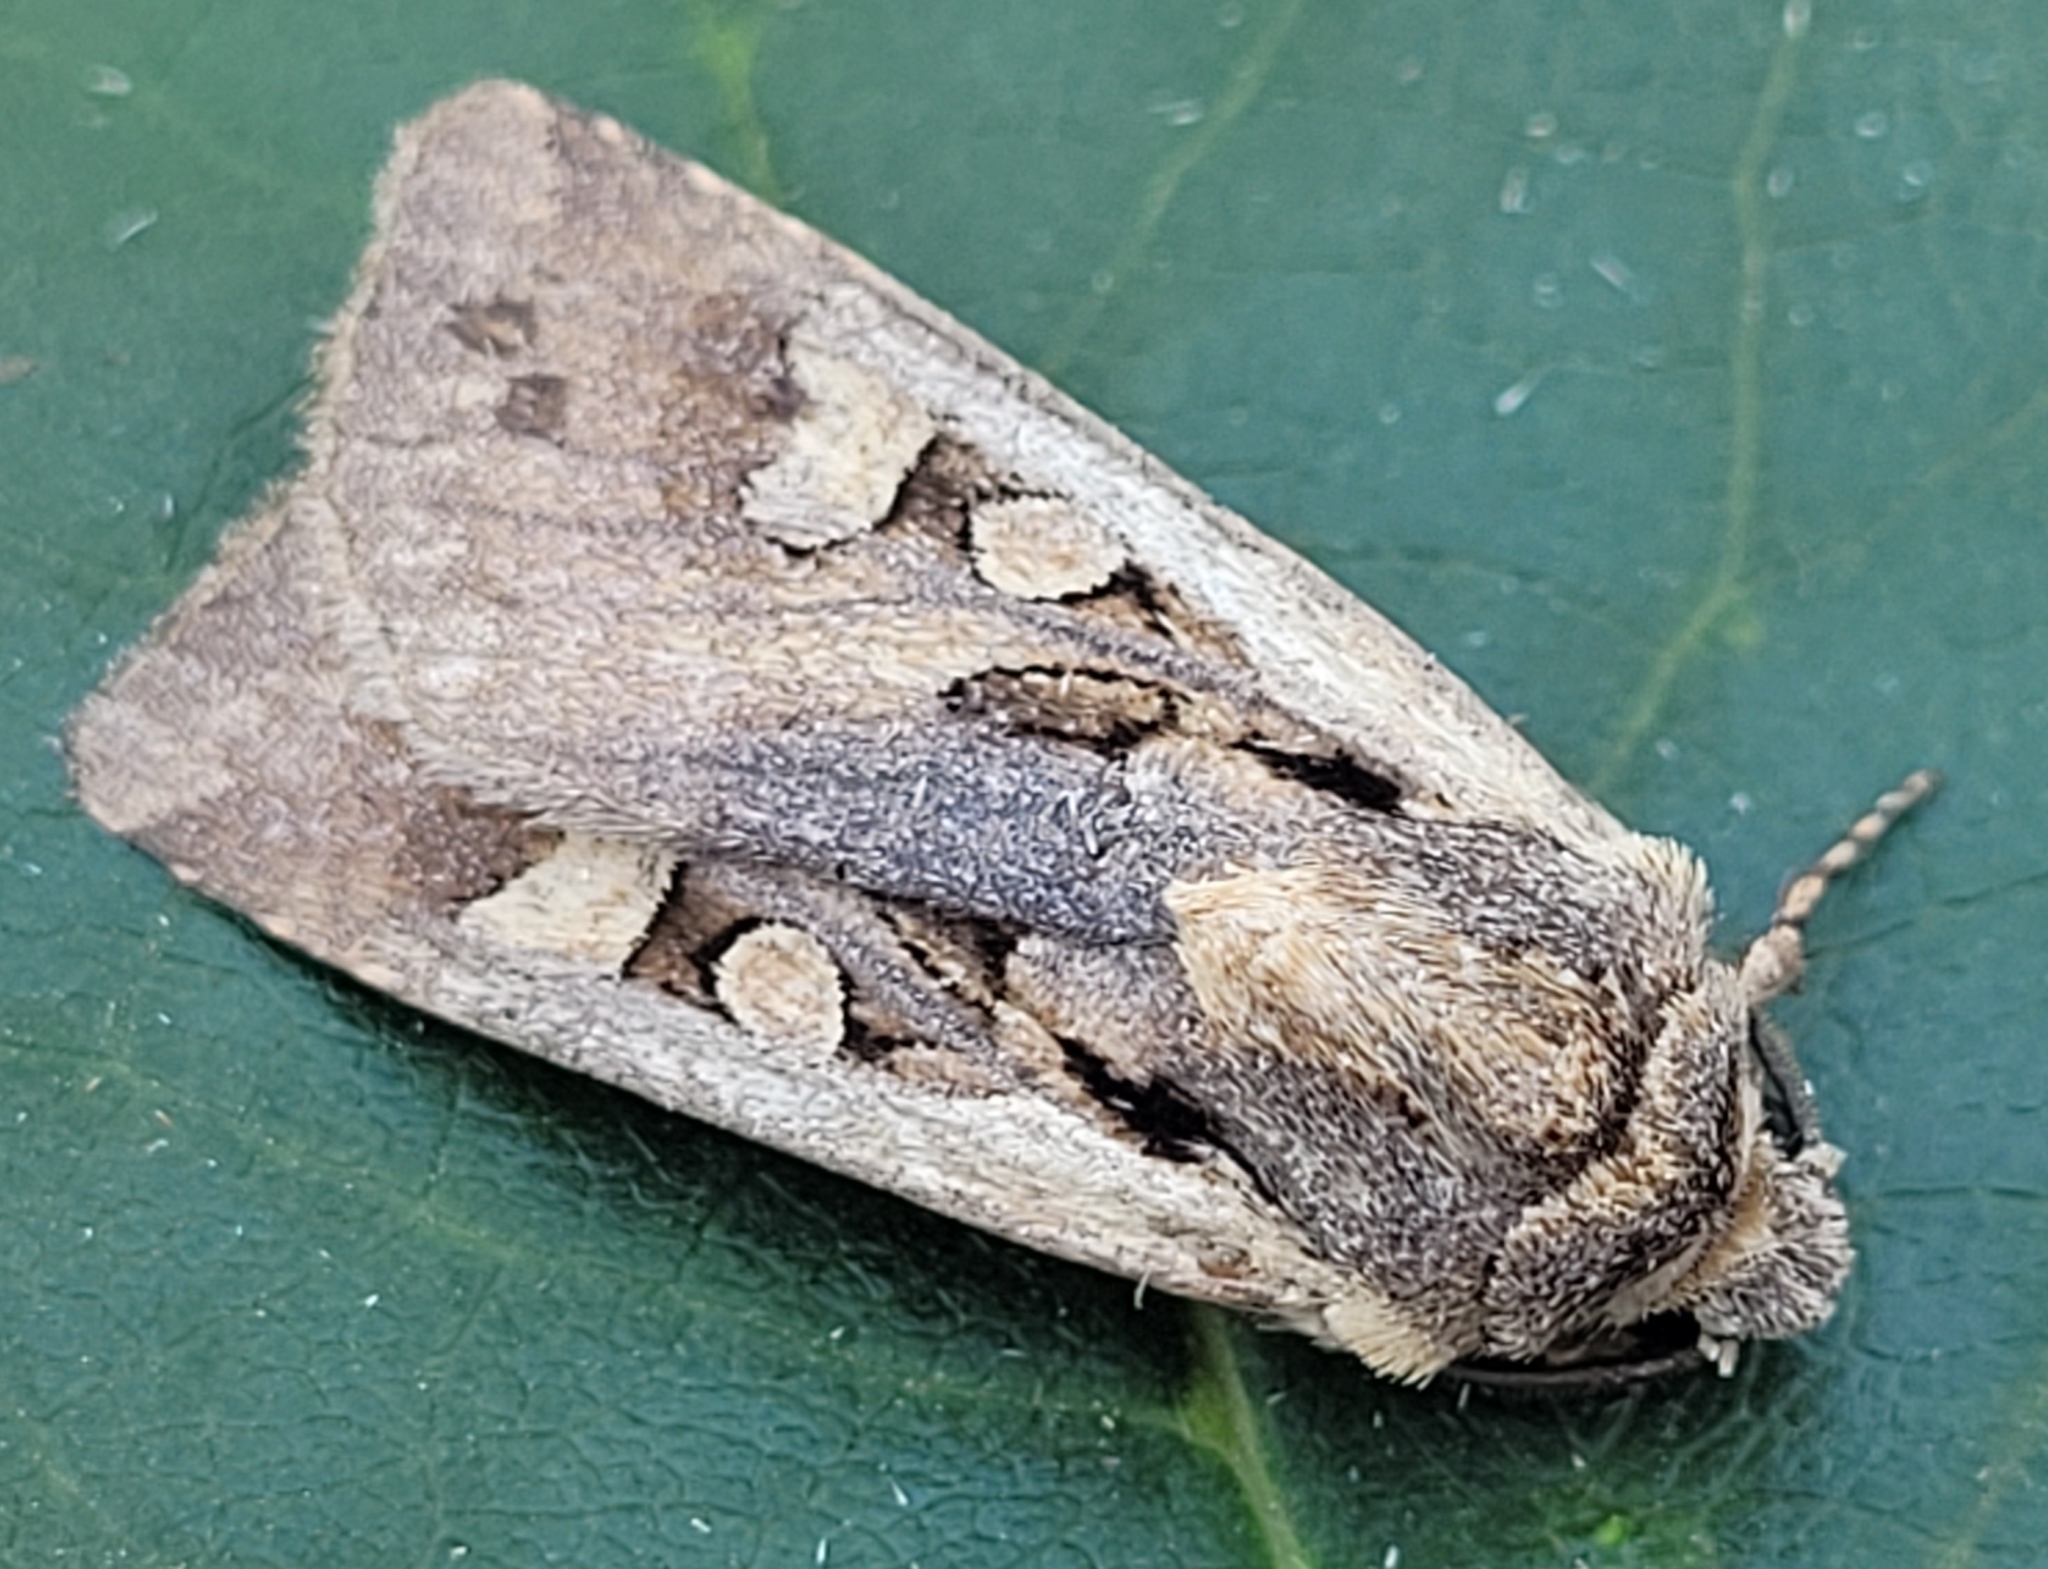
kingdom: Animalia
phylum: Arthropoda
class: Insecta
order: Lepidoptera
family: Noctuidae
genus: Euxoa
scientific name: Euxoa obeliscoides
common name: Obelisk dart moth
